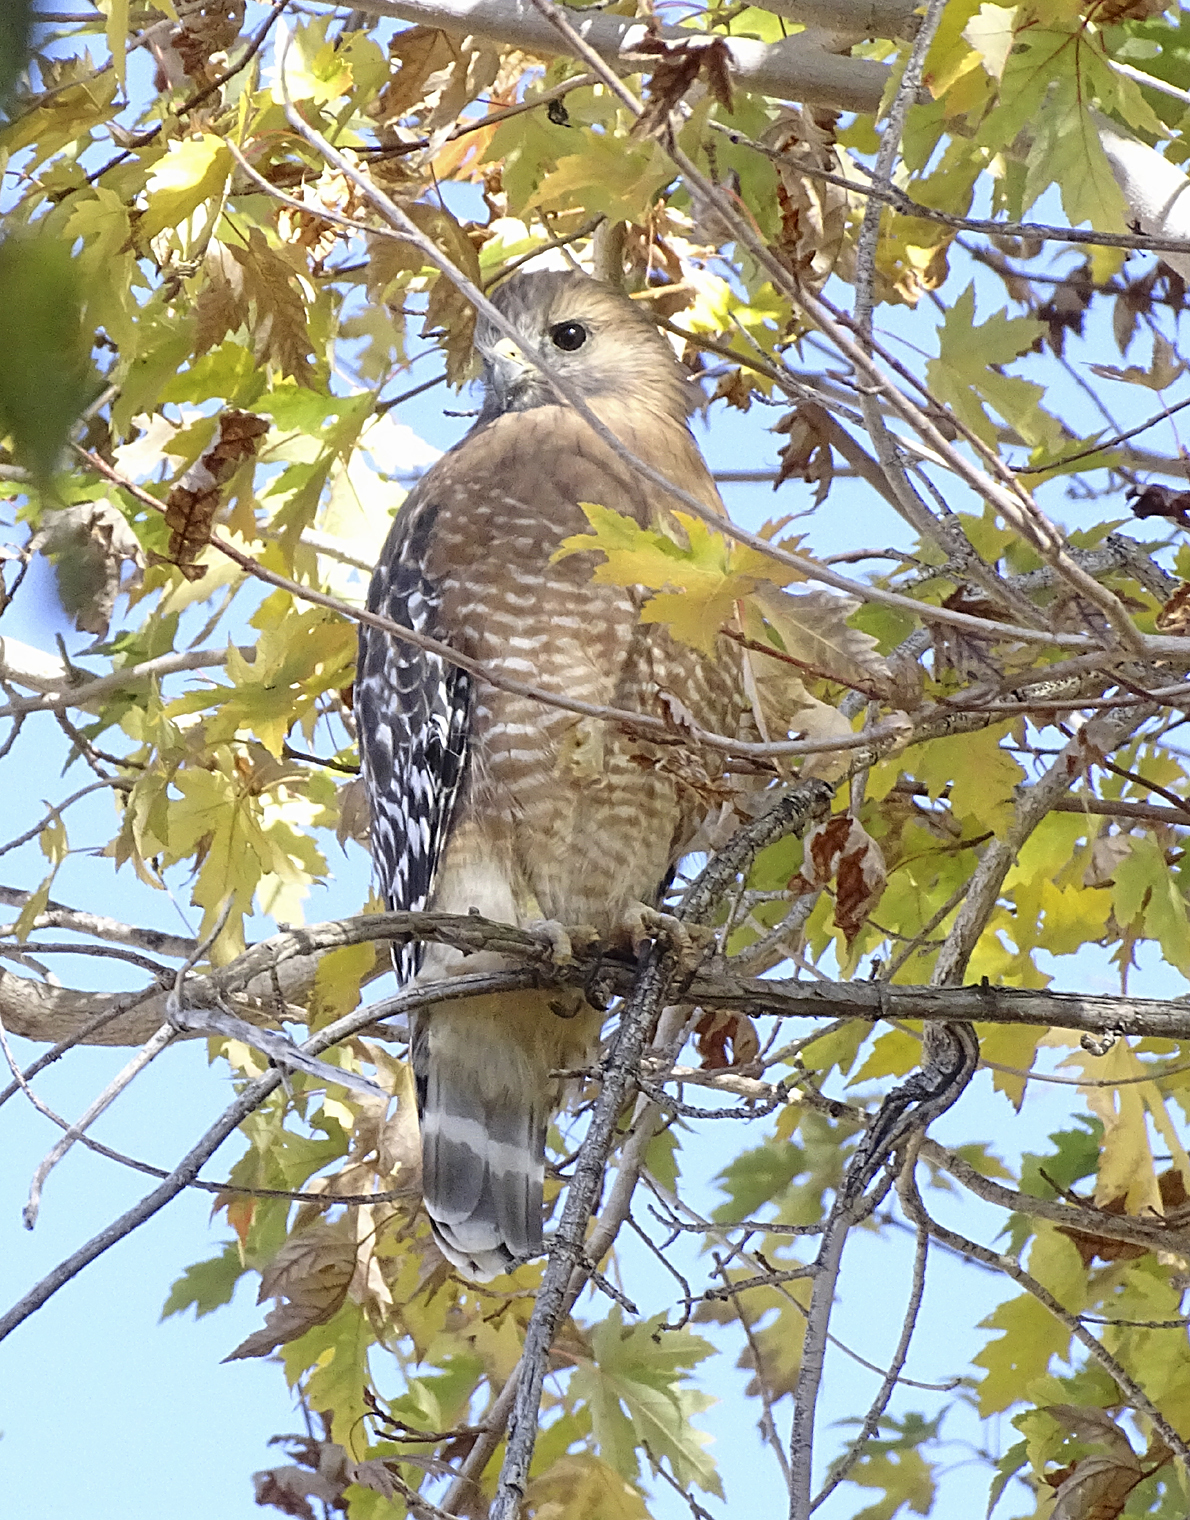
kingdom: Animalia
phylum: Chordata
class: Aves
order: Accipitriformes
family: Accipitridae
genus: Buteo
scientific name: Buteo lineatus
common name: Red-shouldered hawk
